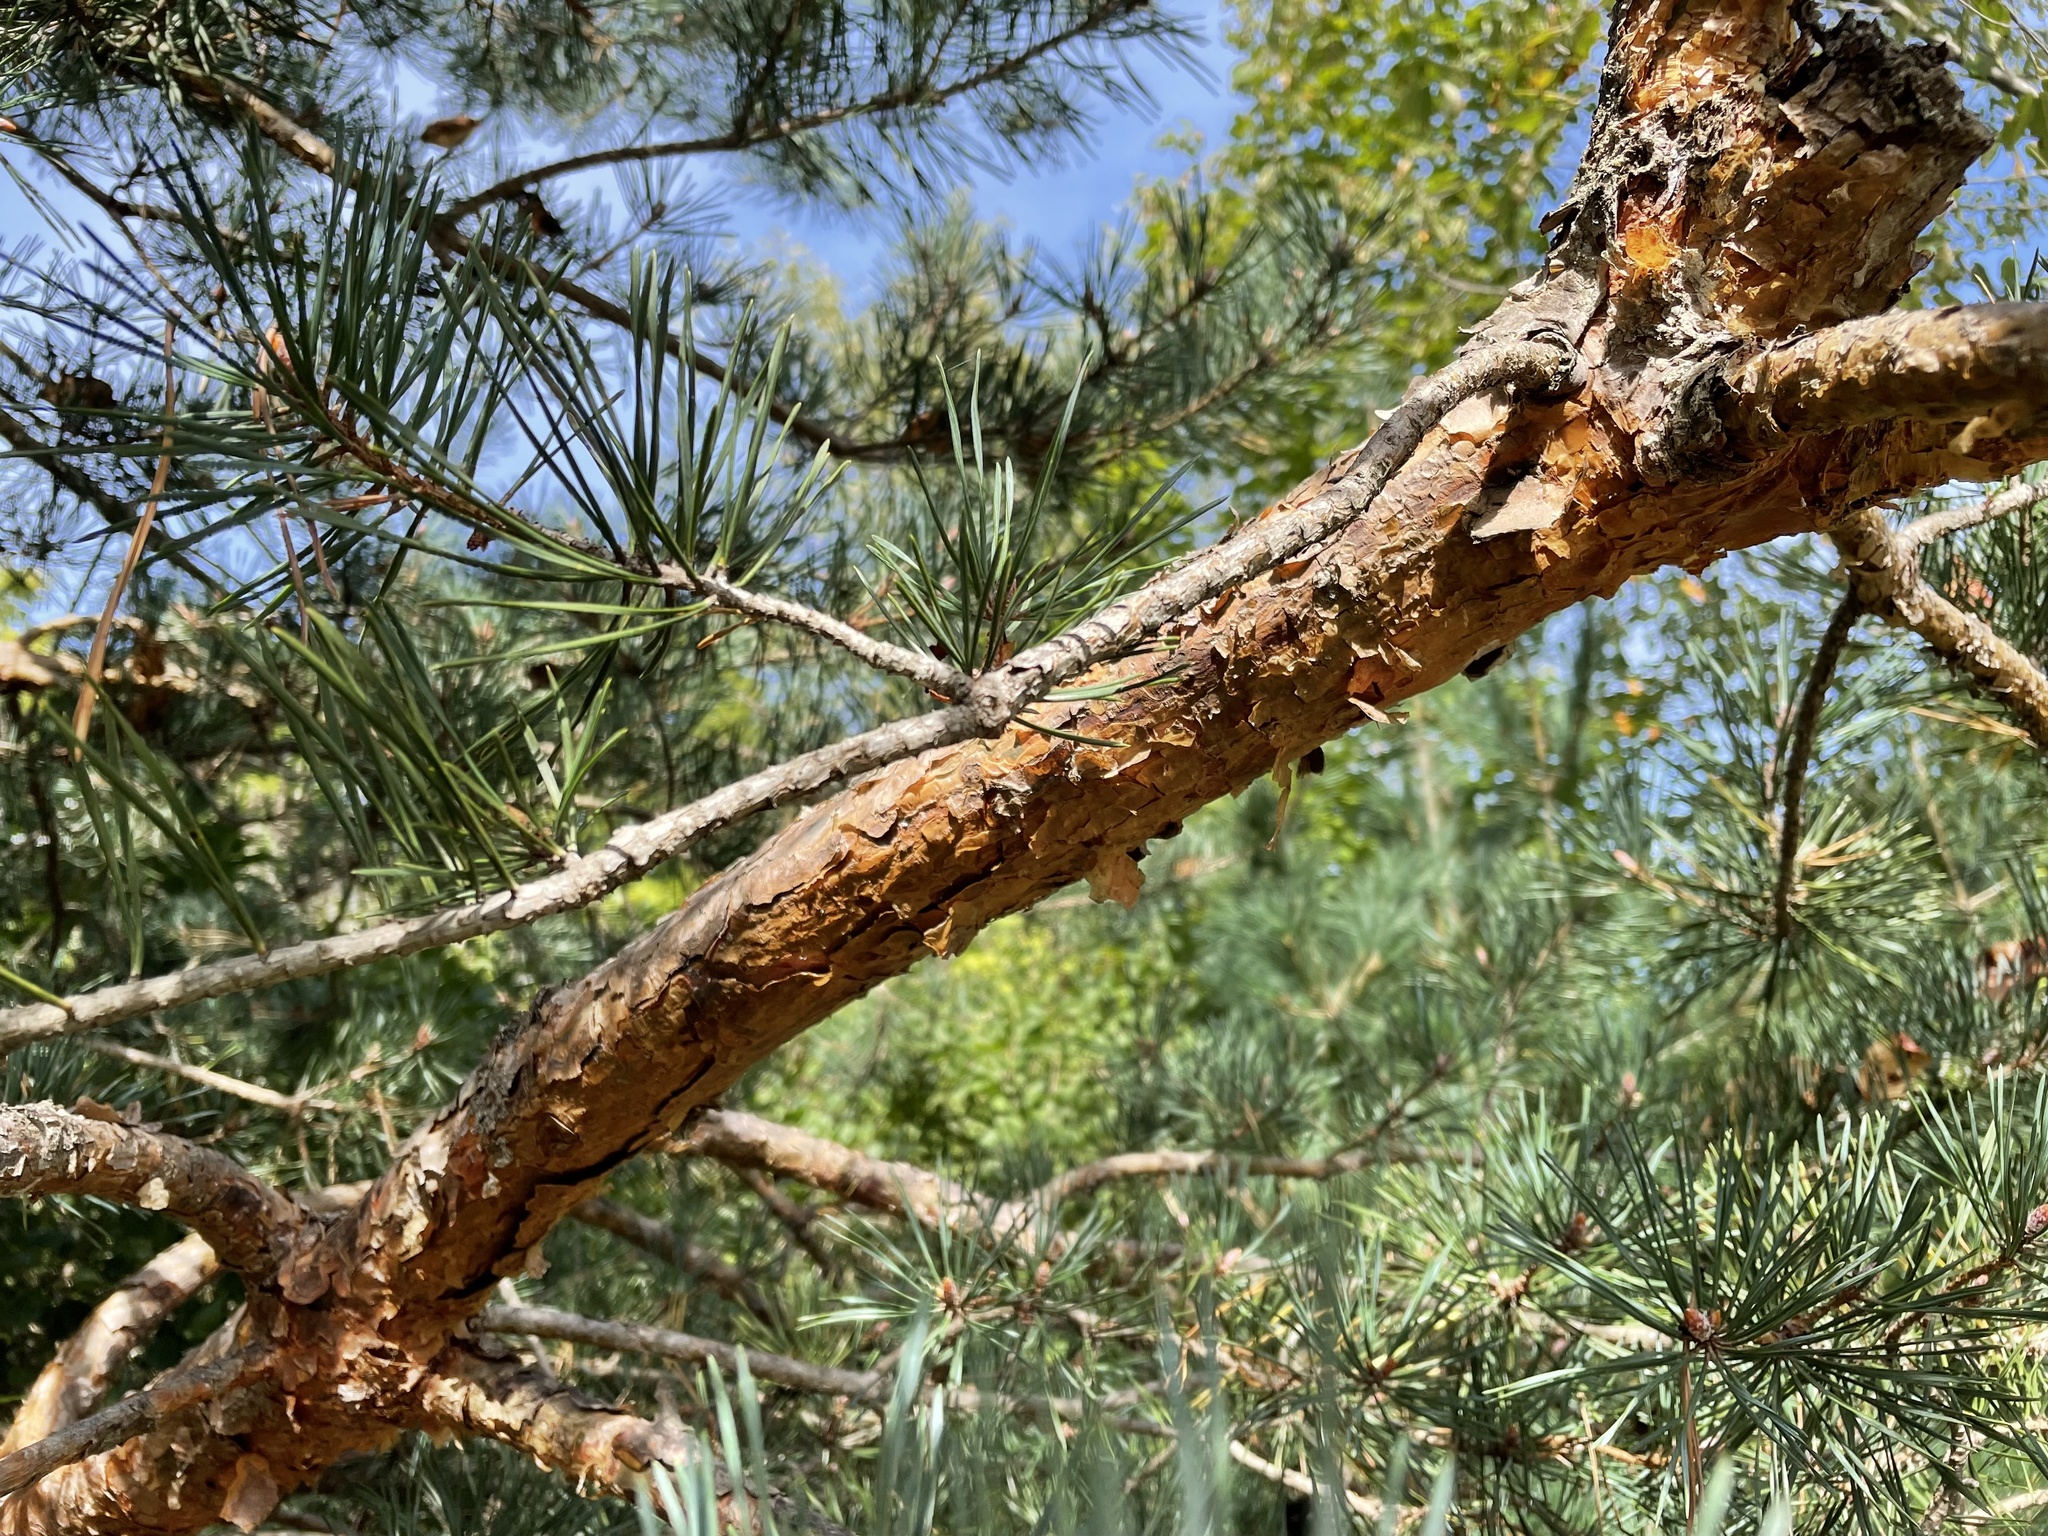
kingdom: Plantae
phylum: Tracheophyta
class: Pinopsida
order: Pinales
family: Pinaceae
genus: Pinus
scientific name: Pinus sylvestris
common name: Scots pine
